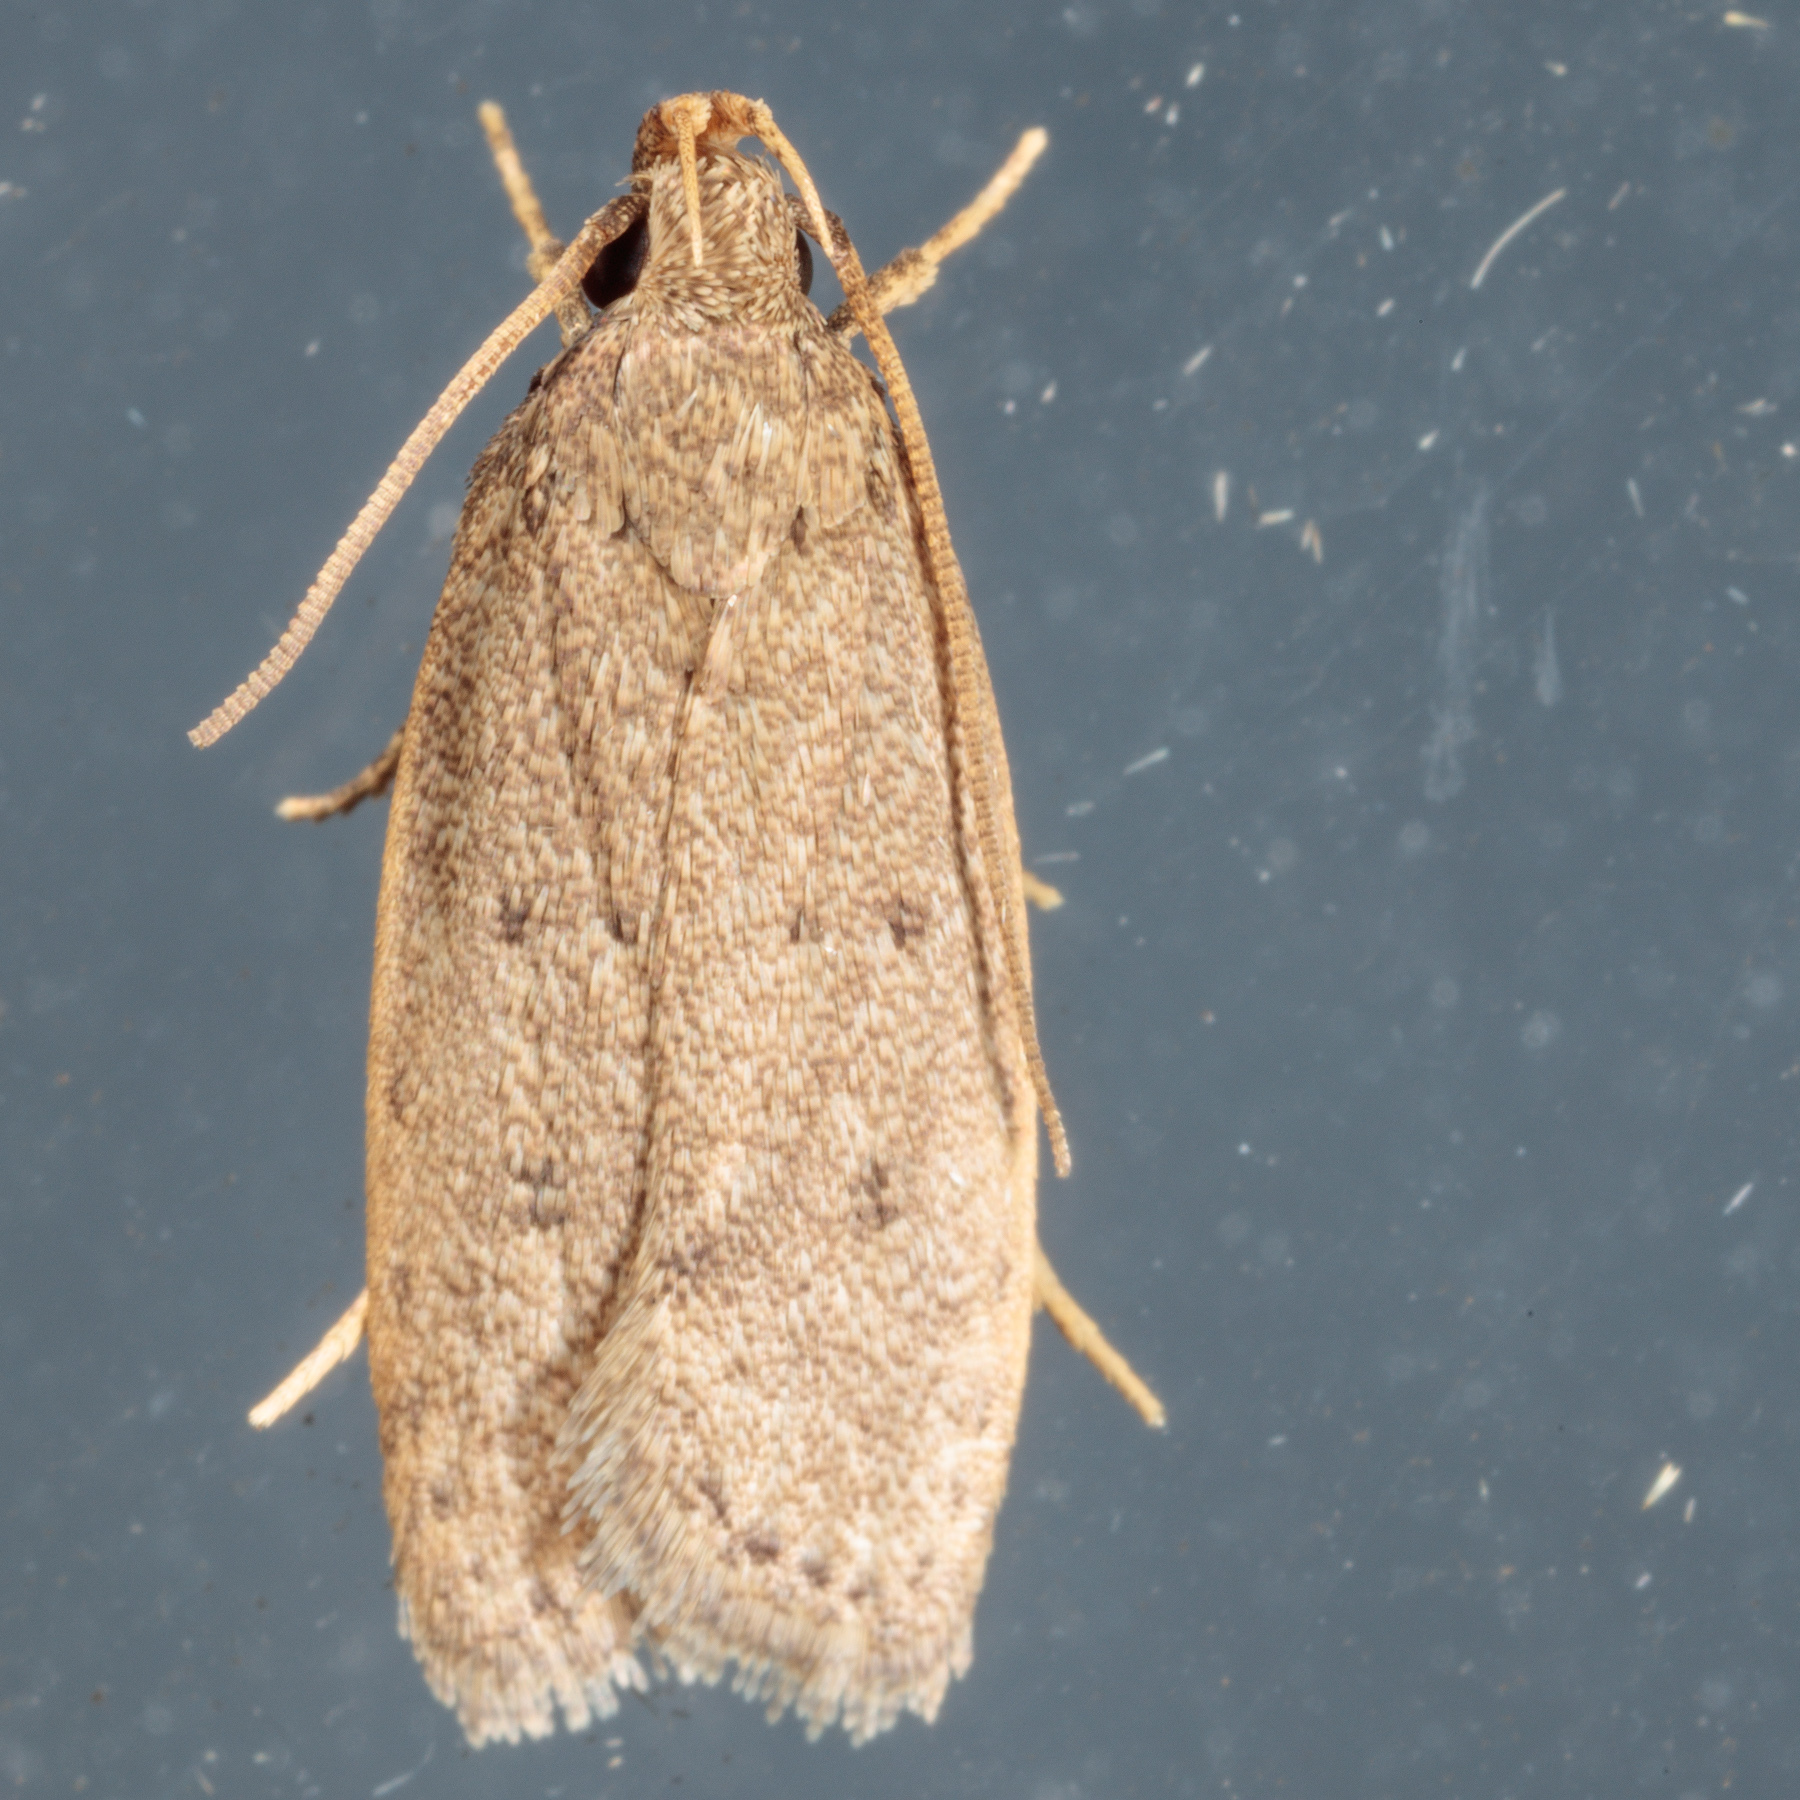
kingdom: Animalia
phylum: Arthropoda
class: Insecta
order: Lepidoptera
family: Autostichidae
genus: Autosticha
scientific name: Autosticha kyotensis
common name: Kyoto moth
